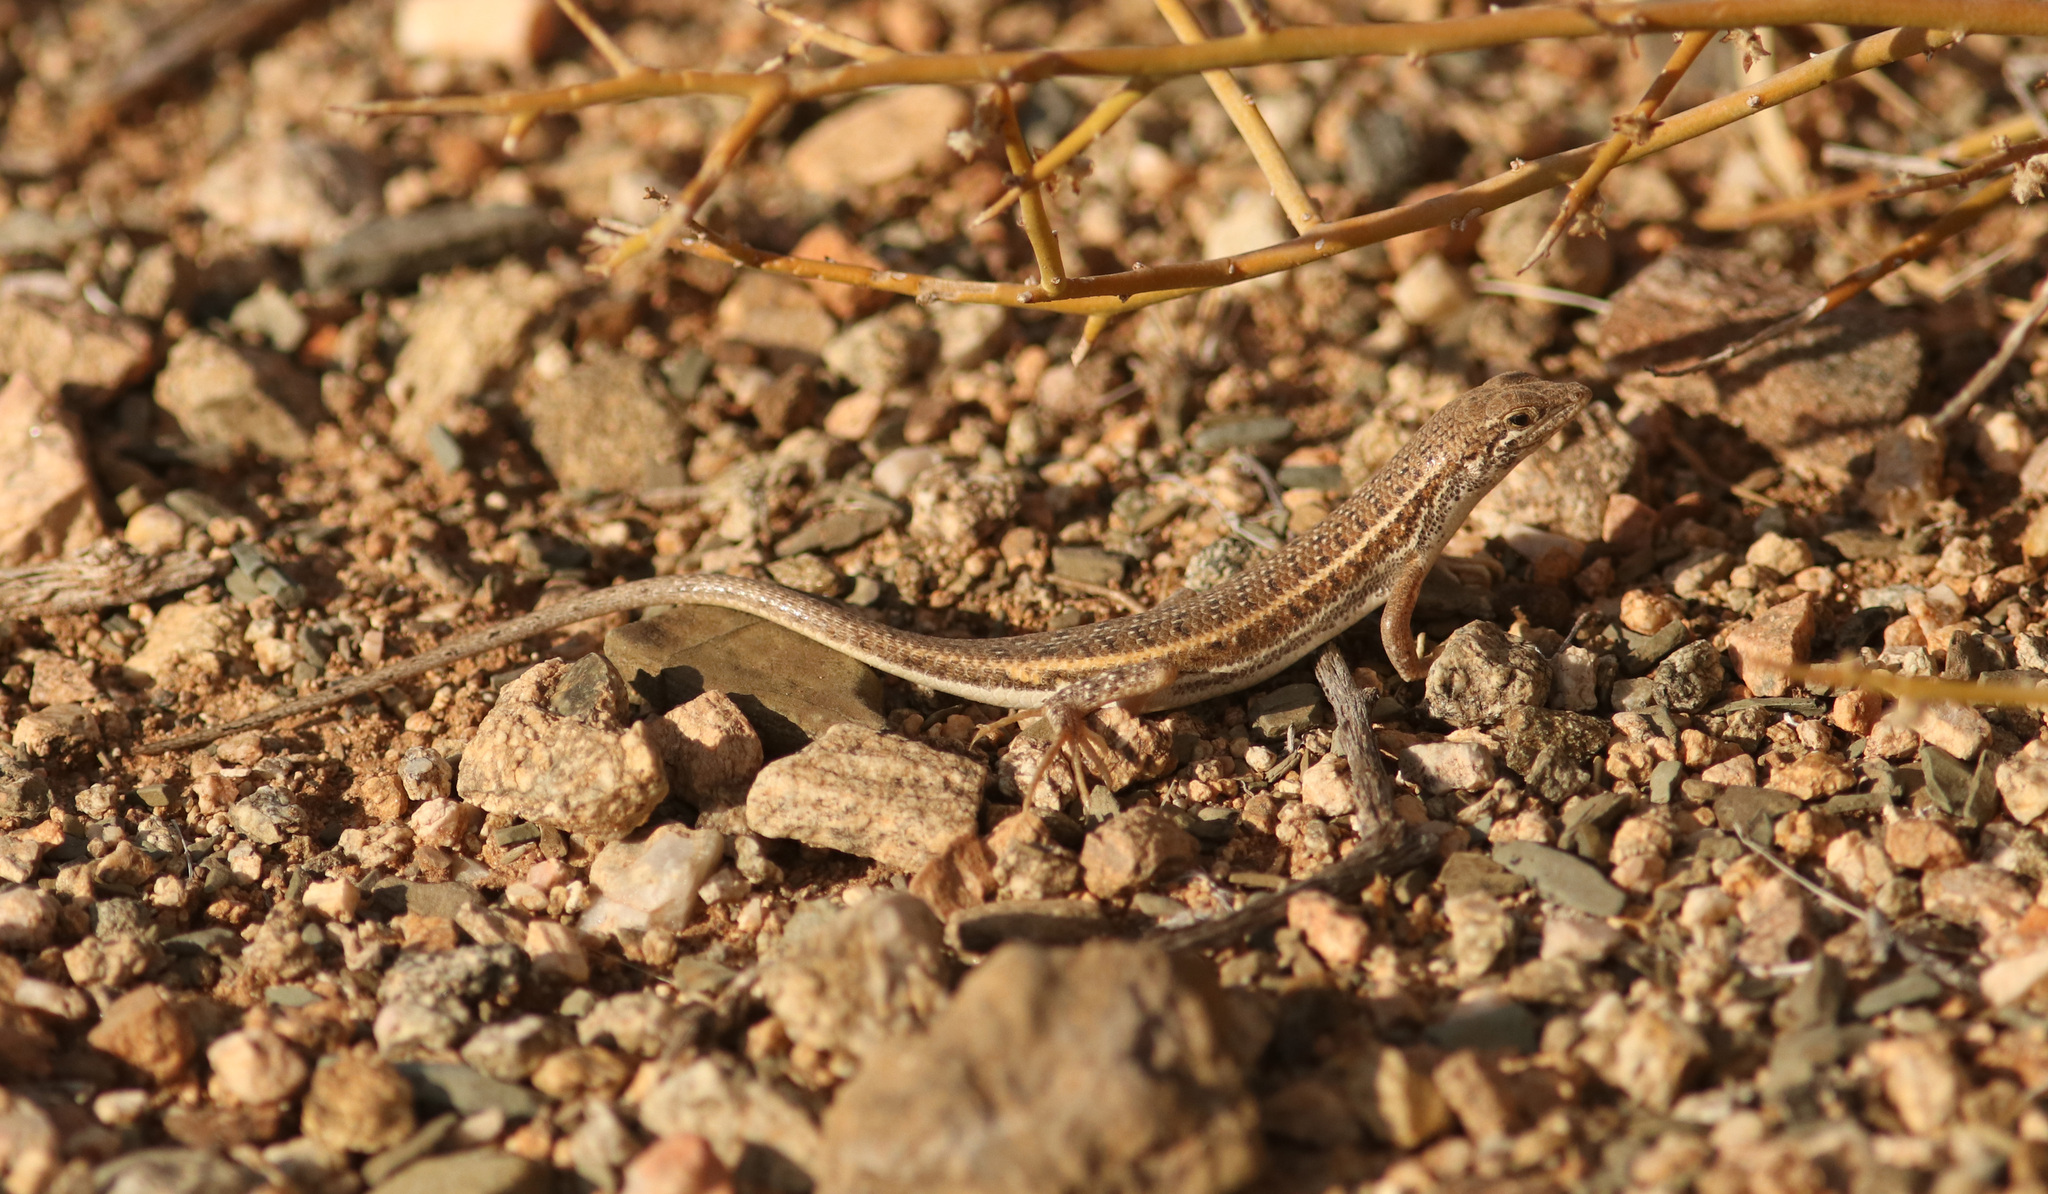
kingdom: Animalia
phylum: Chordata
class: Squamata
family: Scincidae
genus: Trachylepis
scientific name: Trachylepis acutilabris
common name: Sharp-lipped mabuya
